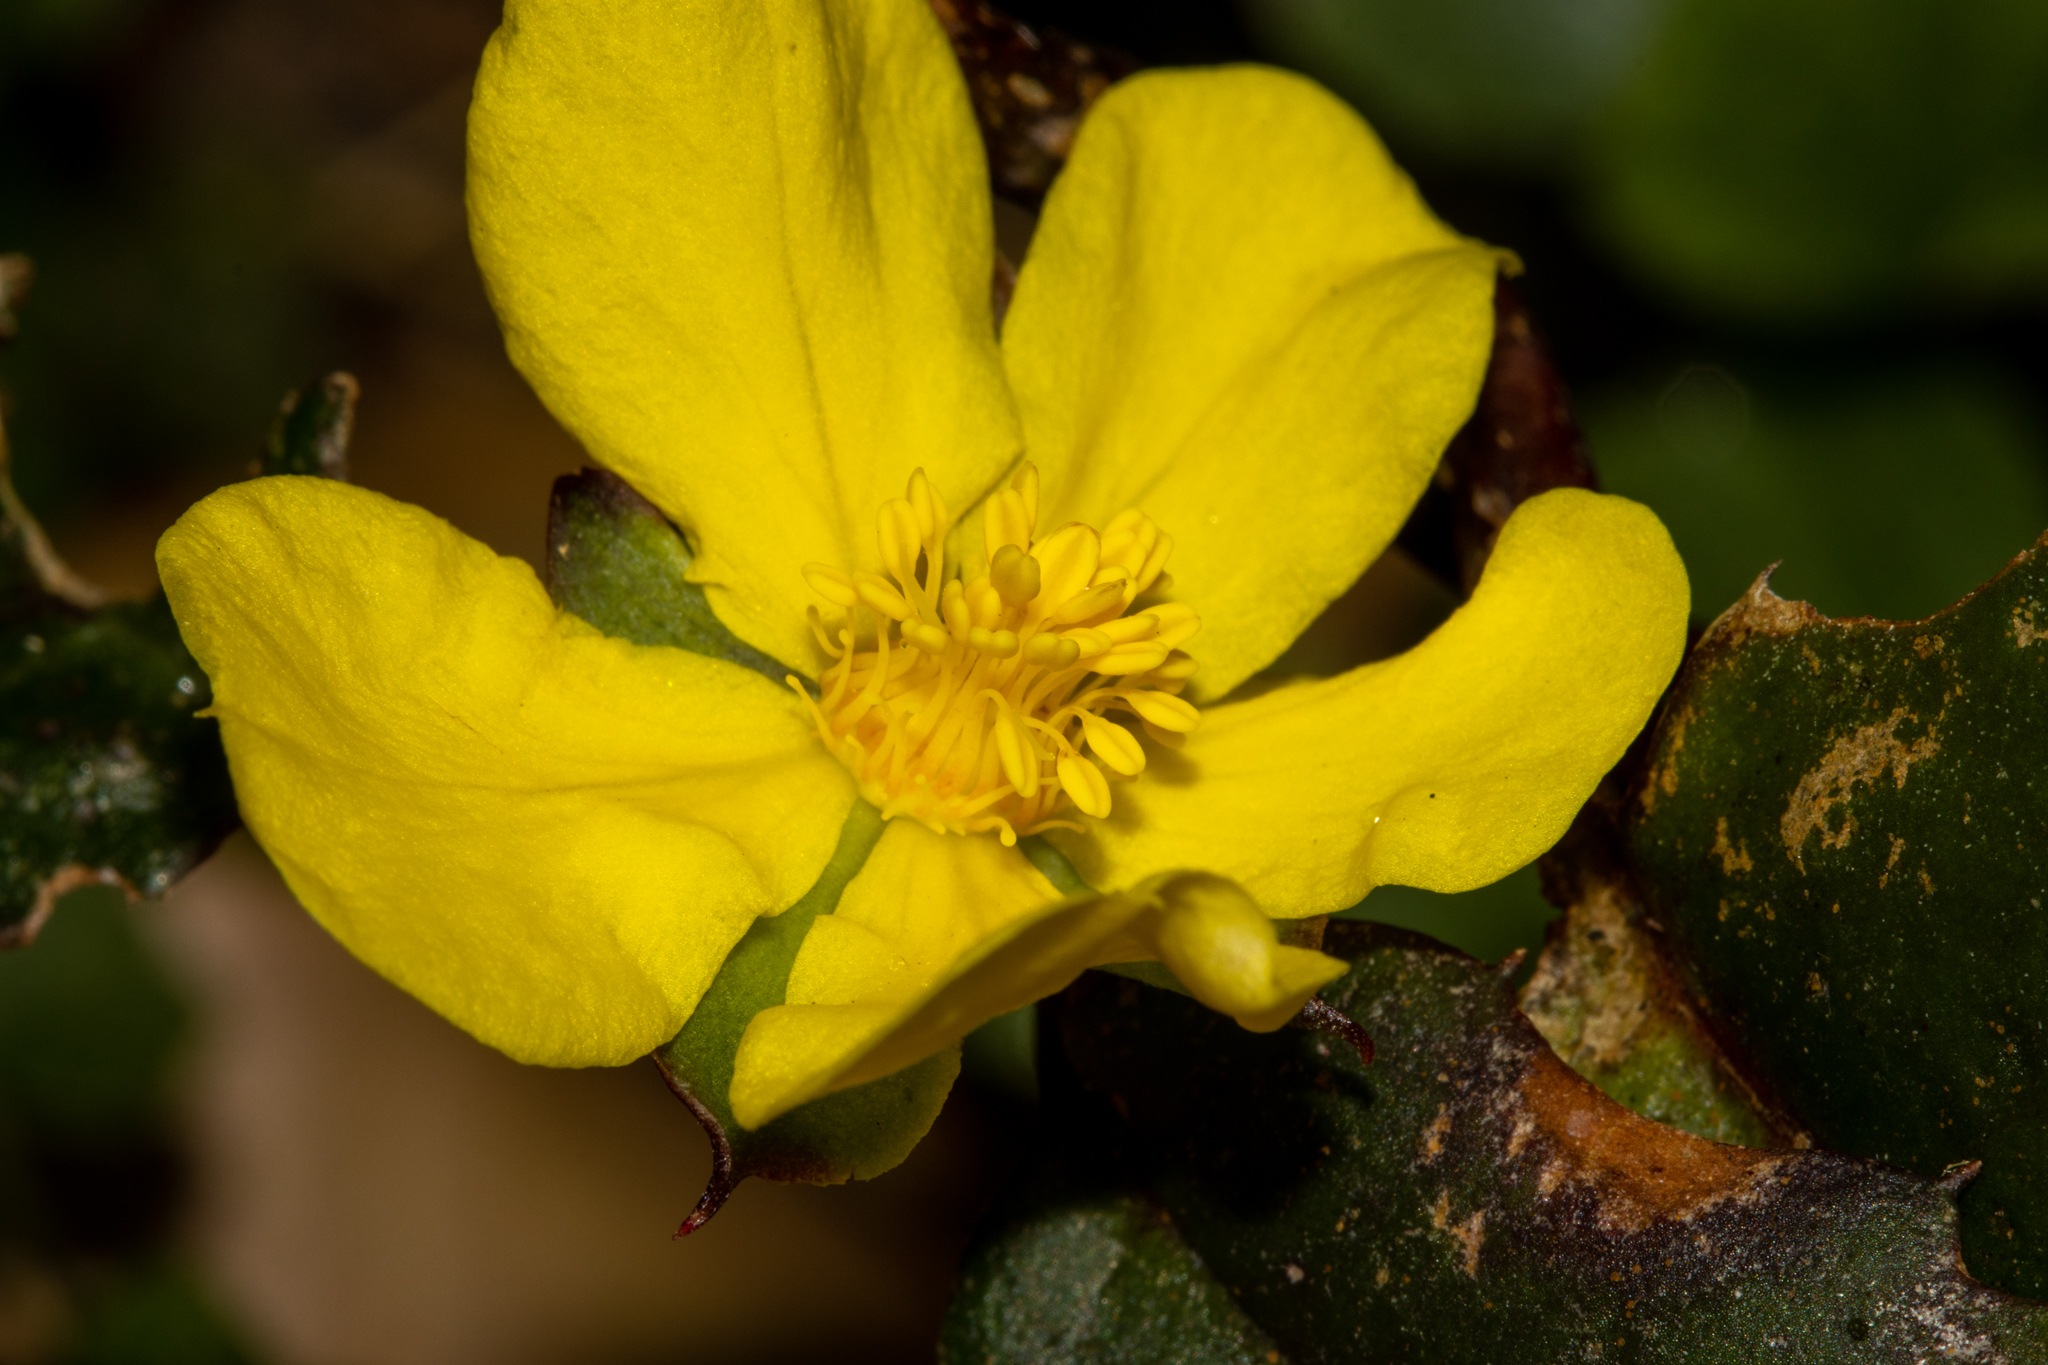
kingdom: Plantae
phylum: Tracheophyta
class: Magnoliopsida
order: Dilleniales
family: Dilleniaceae
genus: Hibbertia
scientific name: Hibbertia dentata
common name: Trailing guinea-flower
